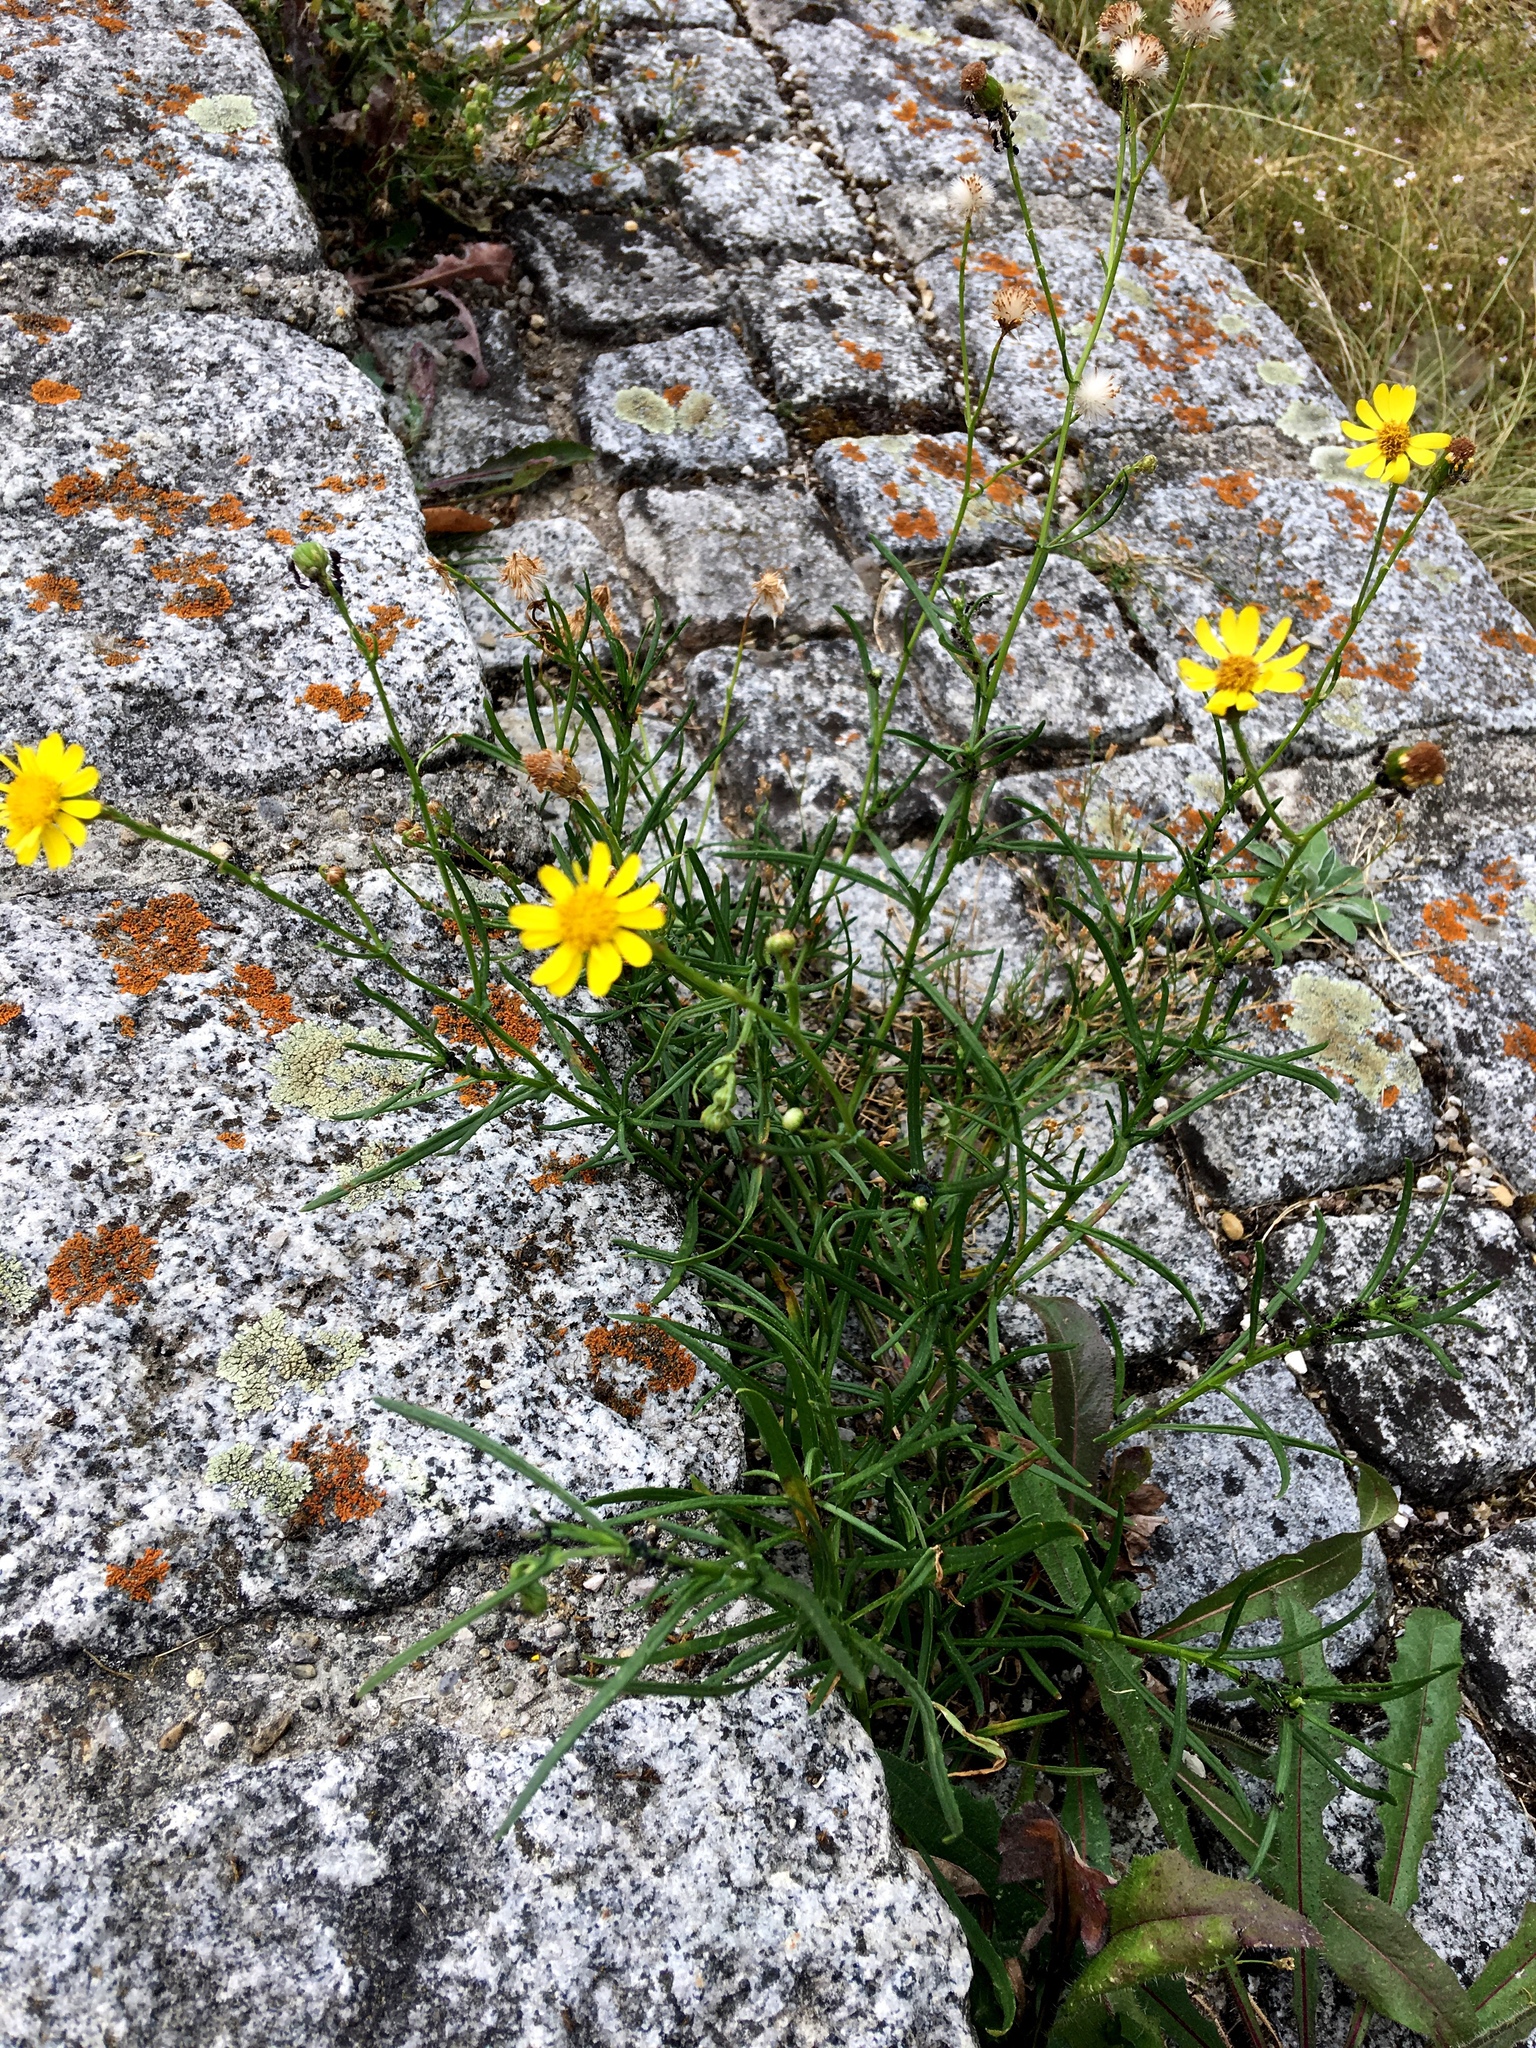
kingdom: Plantae
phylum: Tracheophyta
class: Magnoliopsida
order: Asterales
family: Asteraceae
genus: Senecio
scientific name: Senecio inaequidens
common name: Narrow-leaved ragwort
